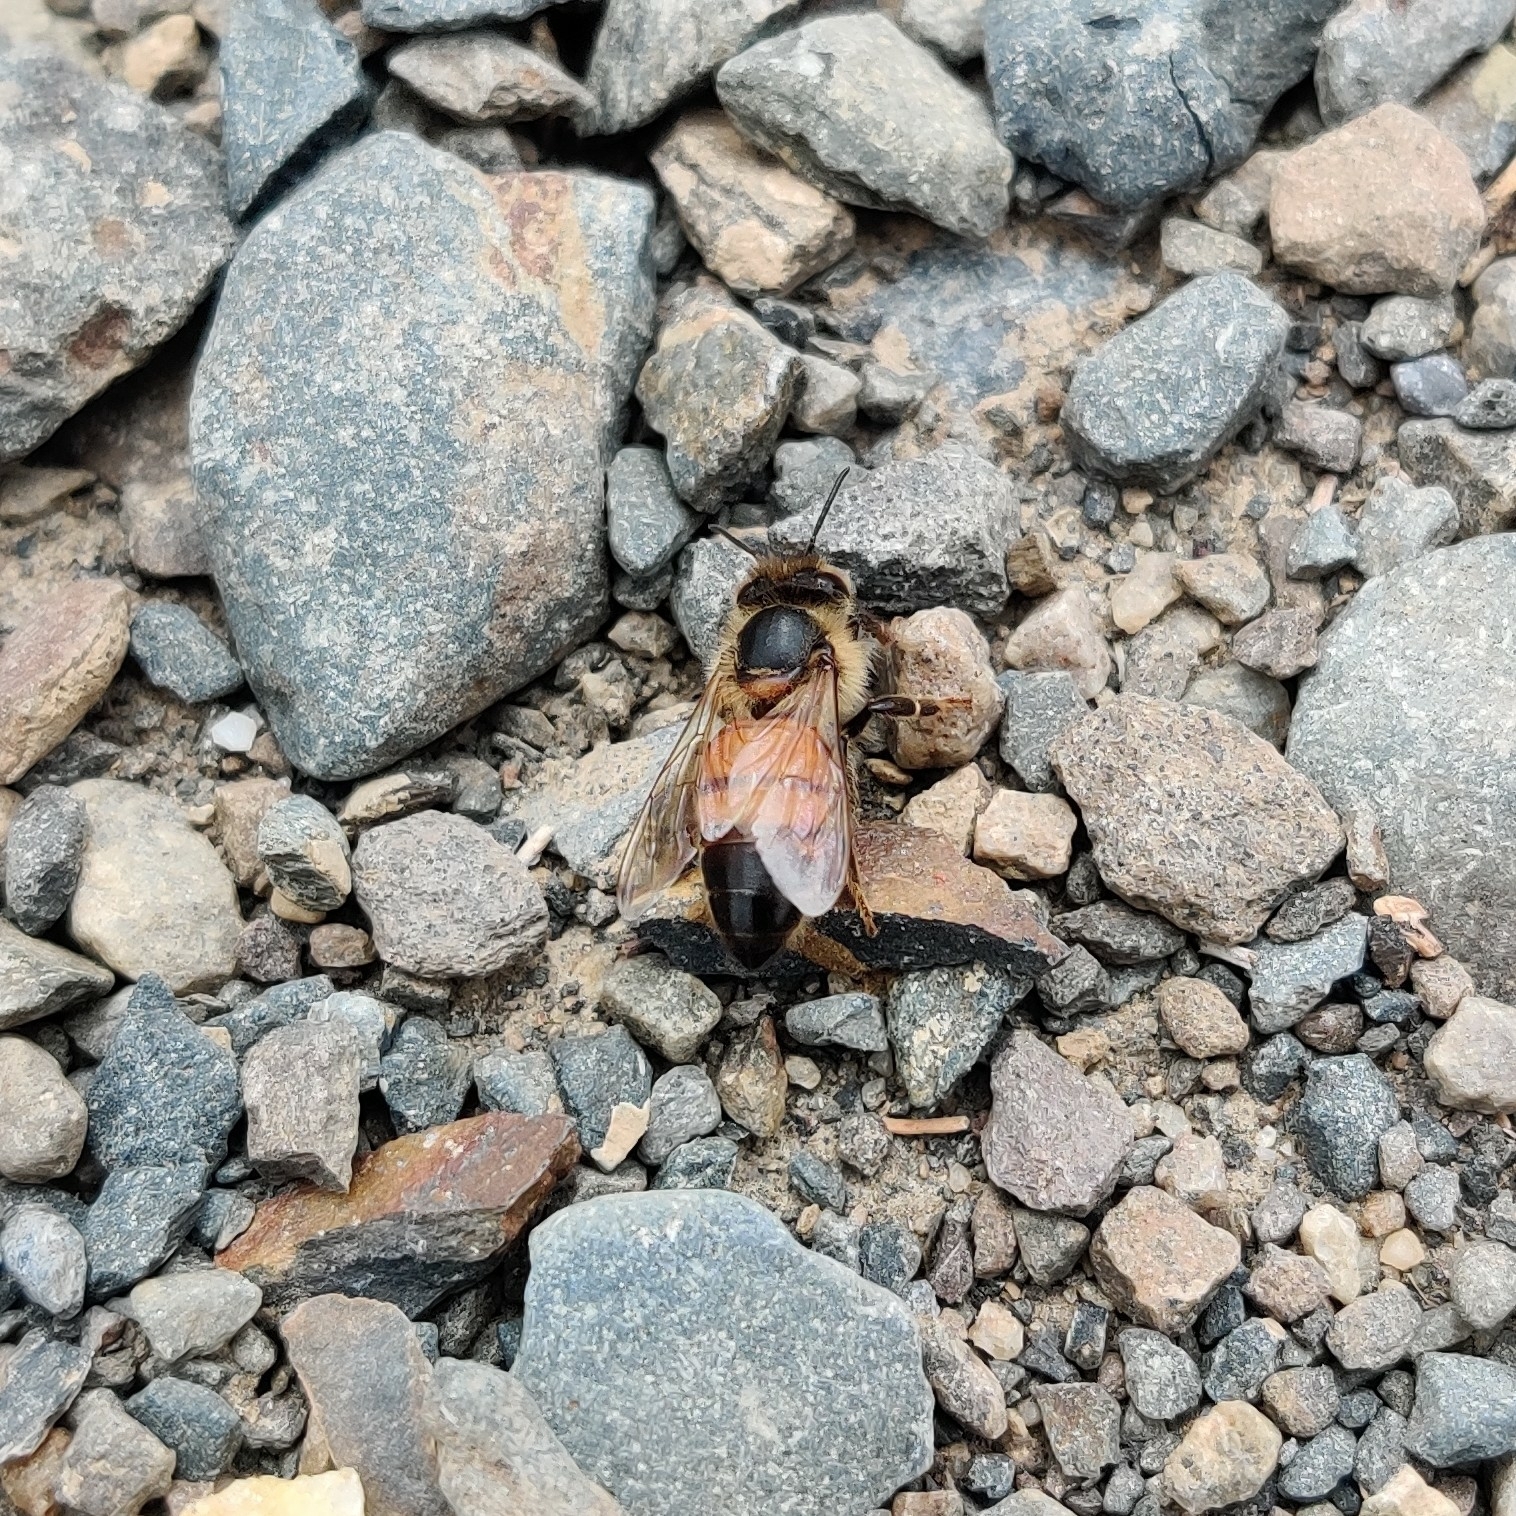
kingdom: Animalia
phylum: Arthropoda
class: Insecta
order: Hymenoptera
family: Apidae
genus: Apis
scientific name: Apis
